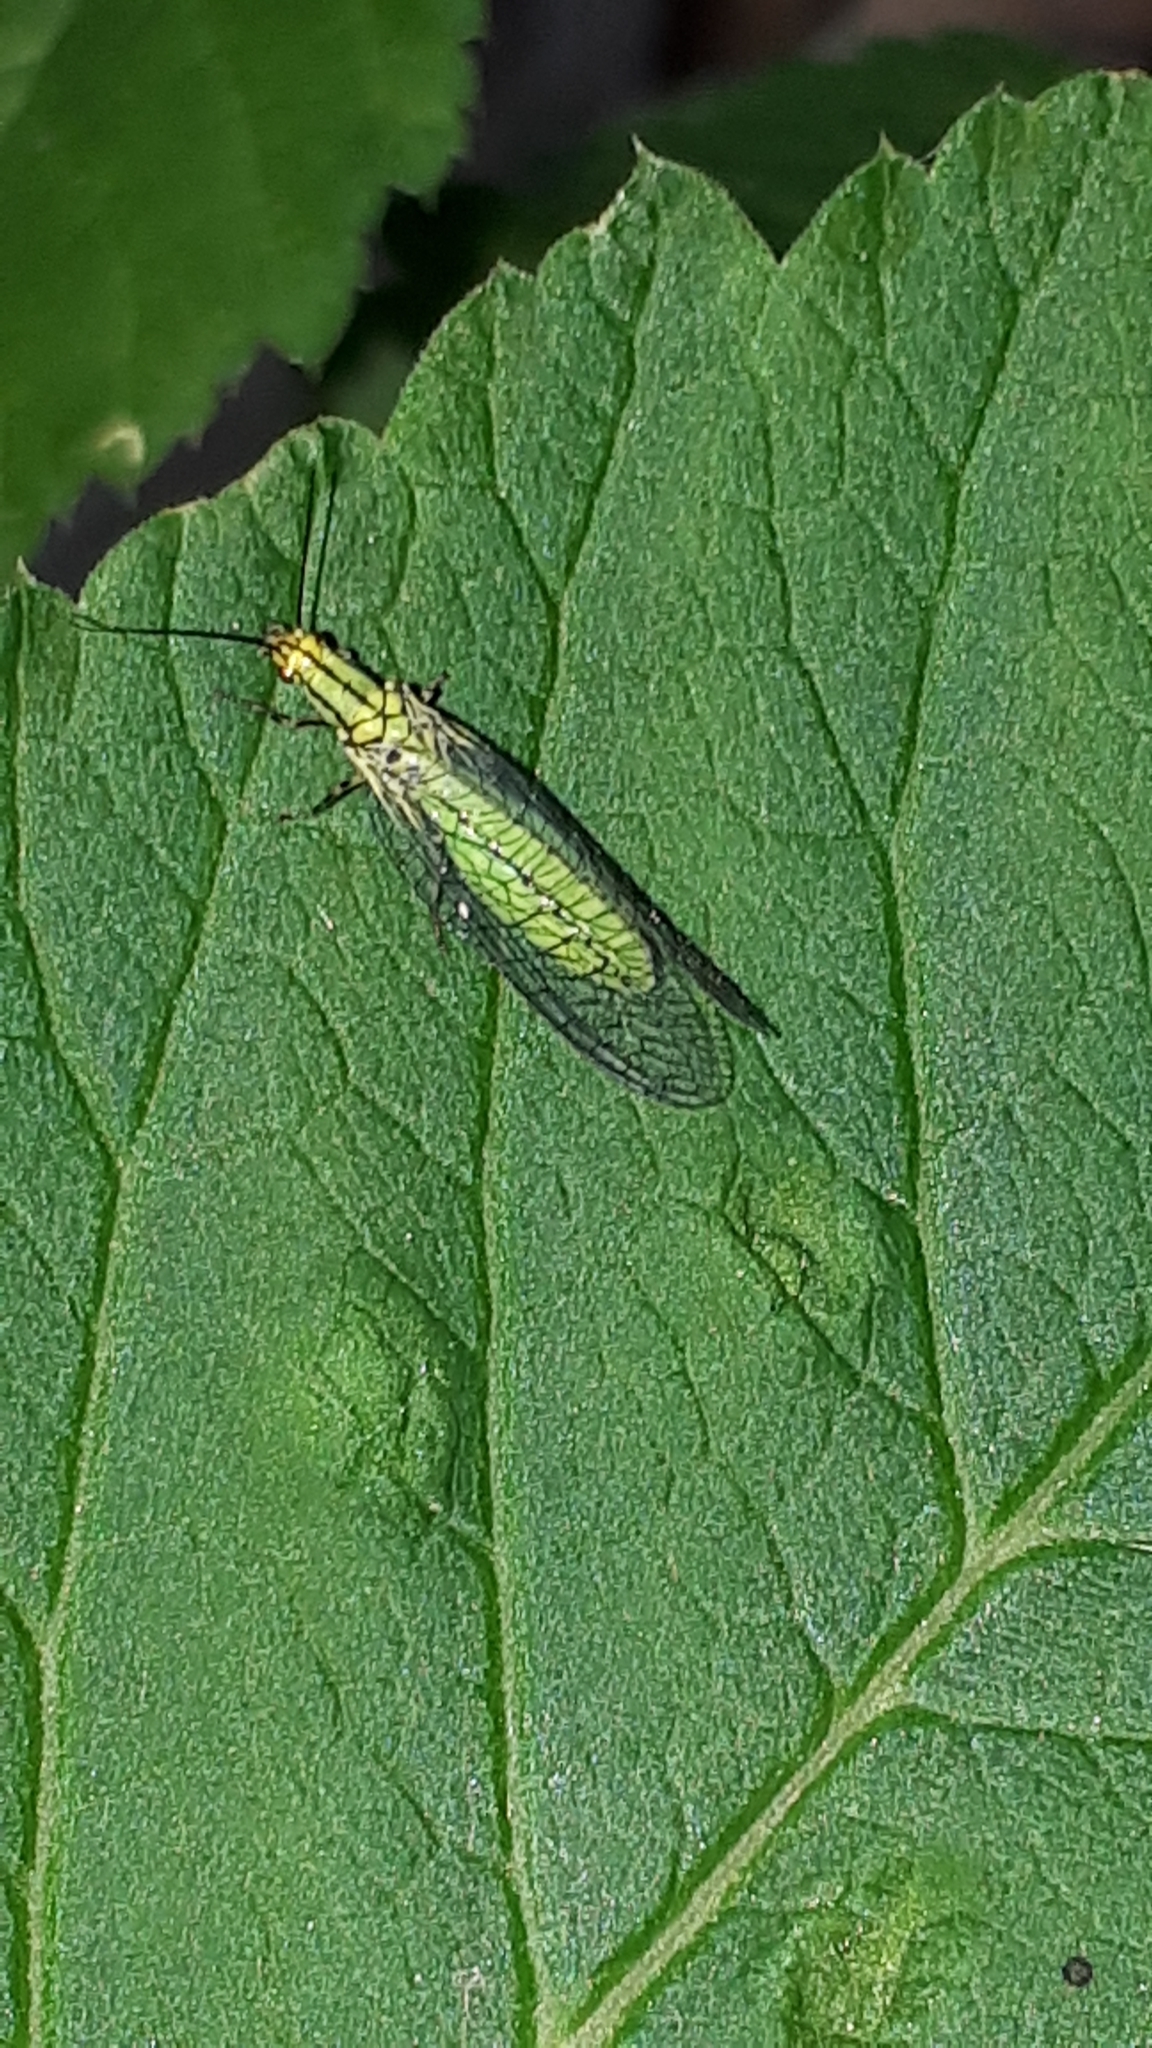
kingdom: Animalia
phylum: Arthropoda
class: Insecta
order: Neuroptera
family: Chrysopidae
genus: Hypochrysa
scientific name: Hypochrysa elegans
